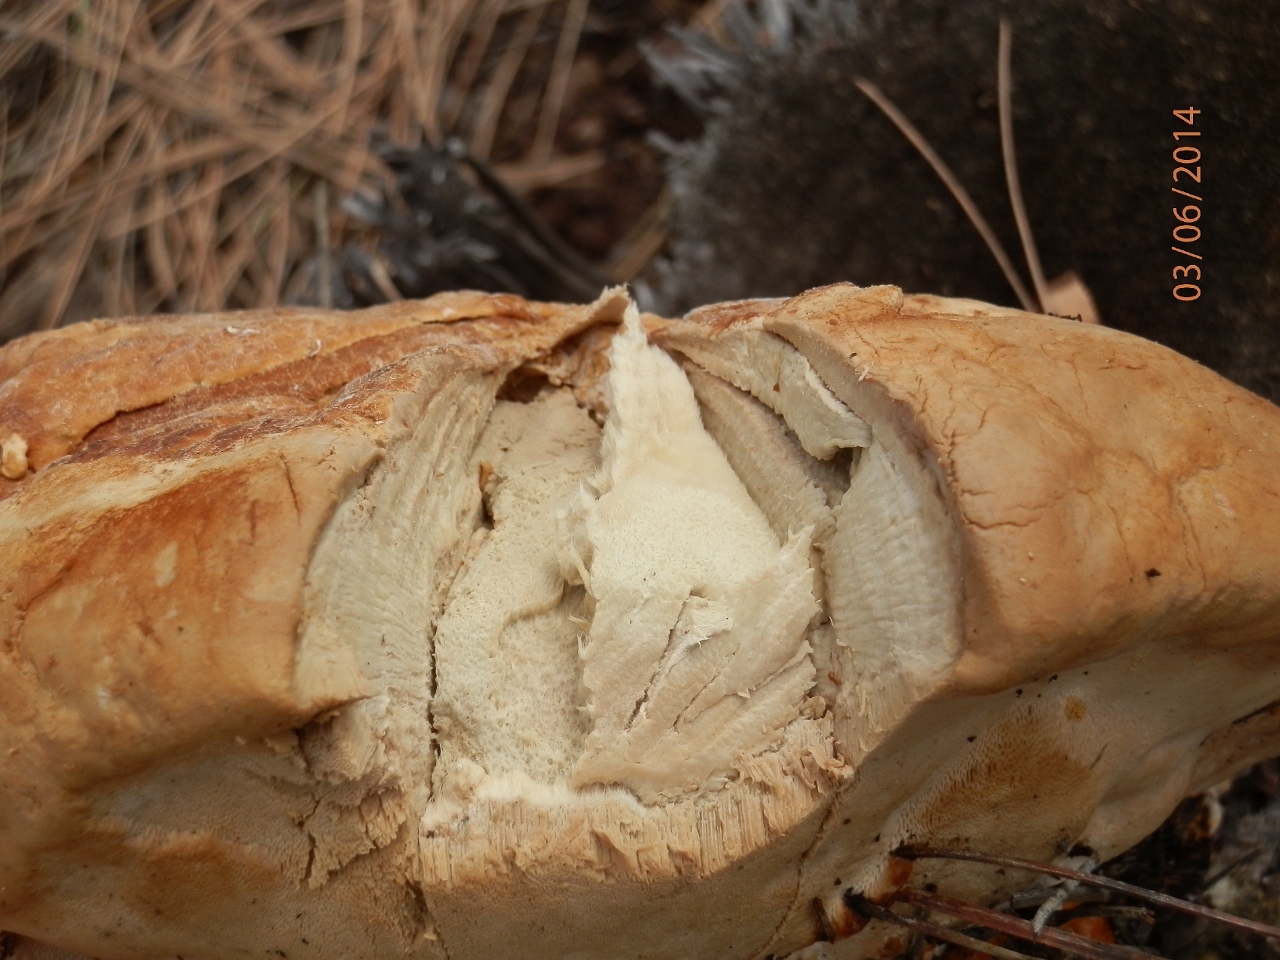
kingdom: Fungi
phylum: Basidiomycota
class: Agaricomycetes
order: Polyporales
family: Fomitopsidaceae
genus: Fomitopsis
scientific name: Fomitopsis schrenkii
